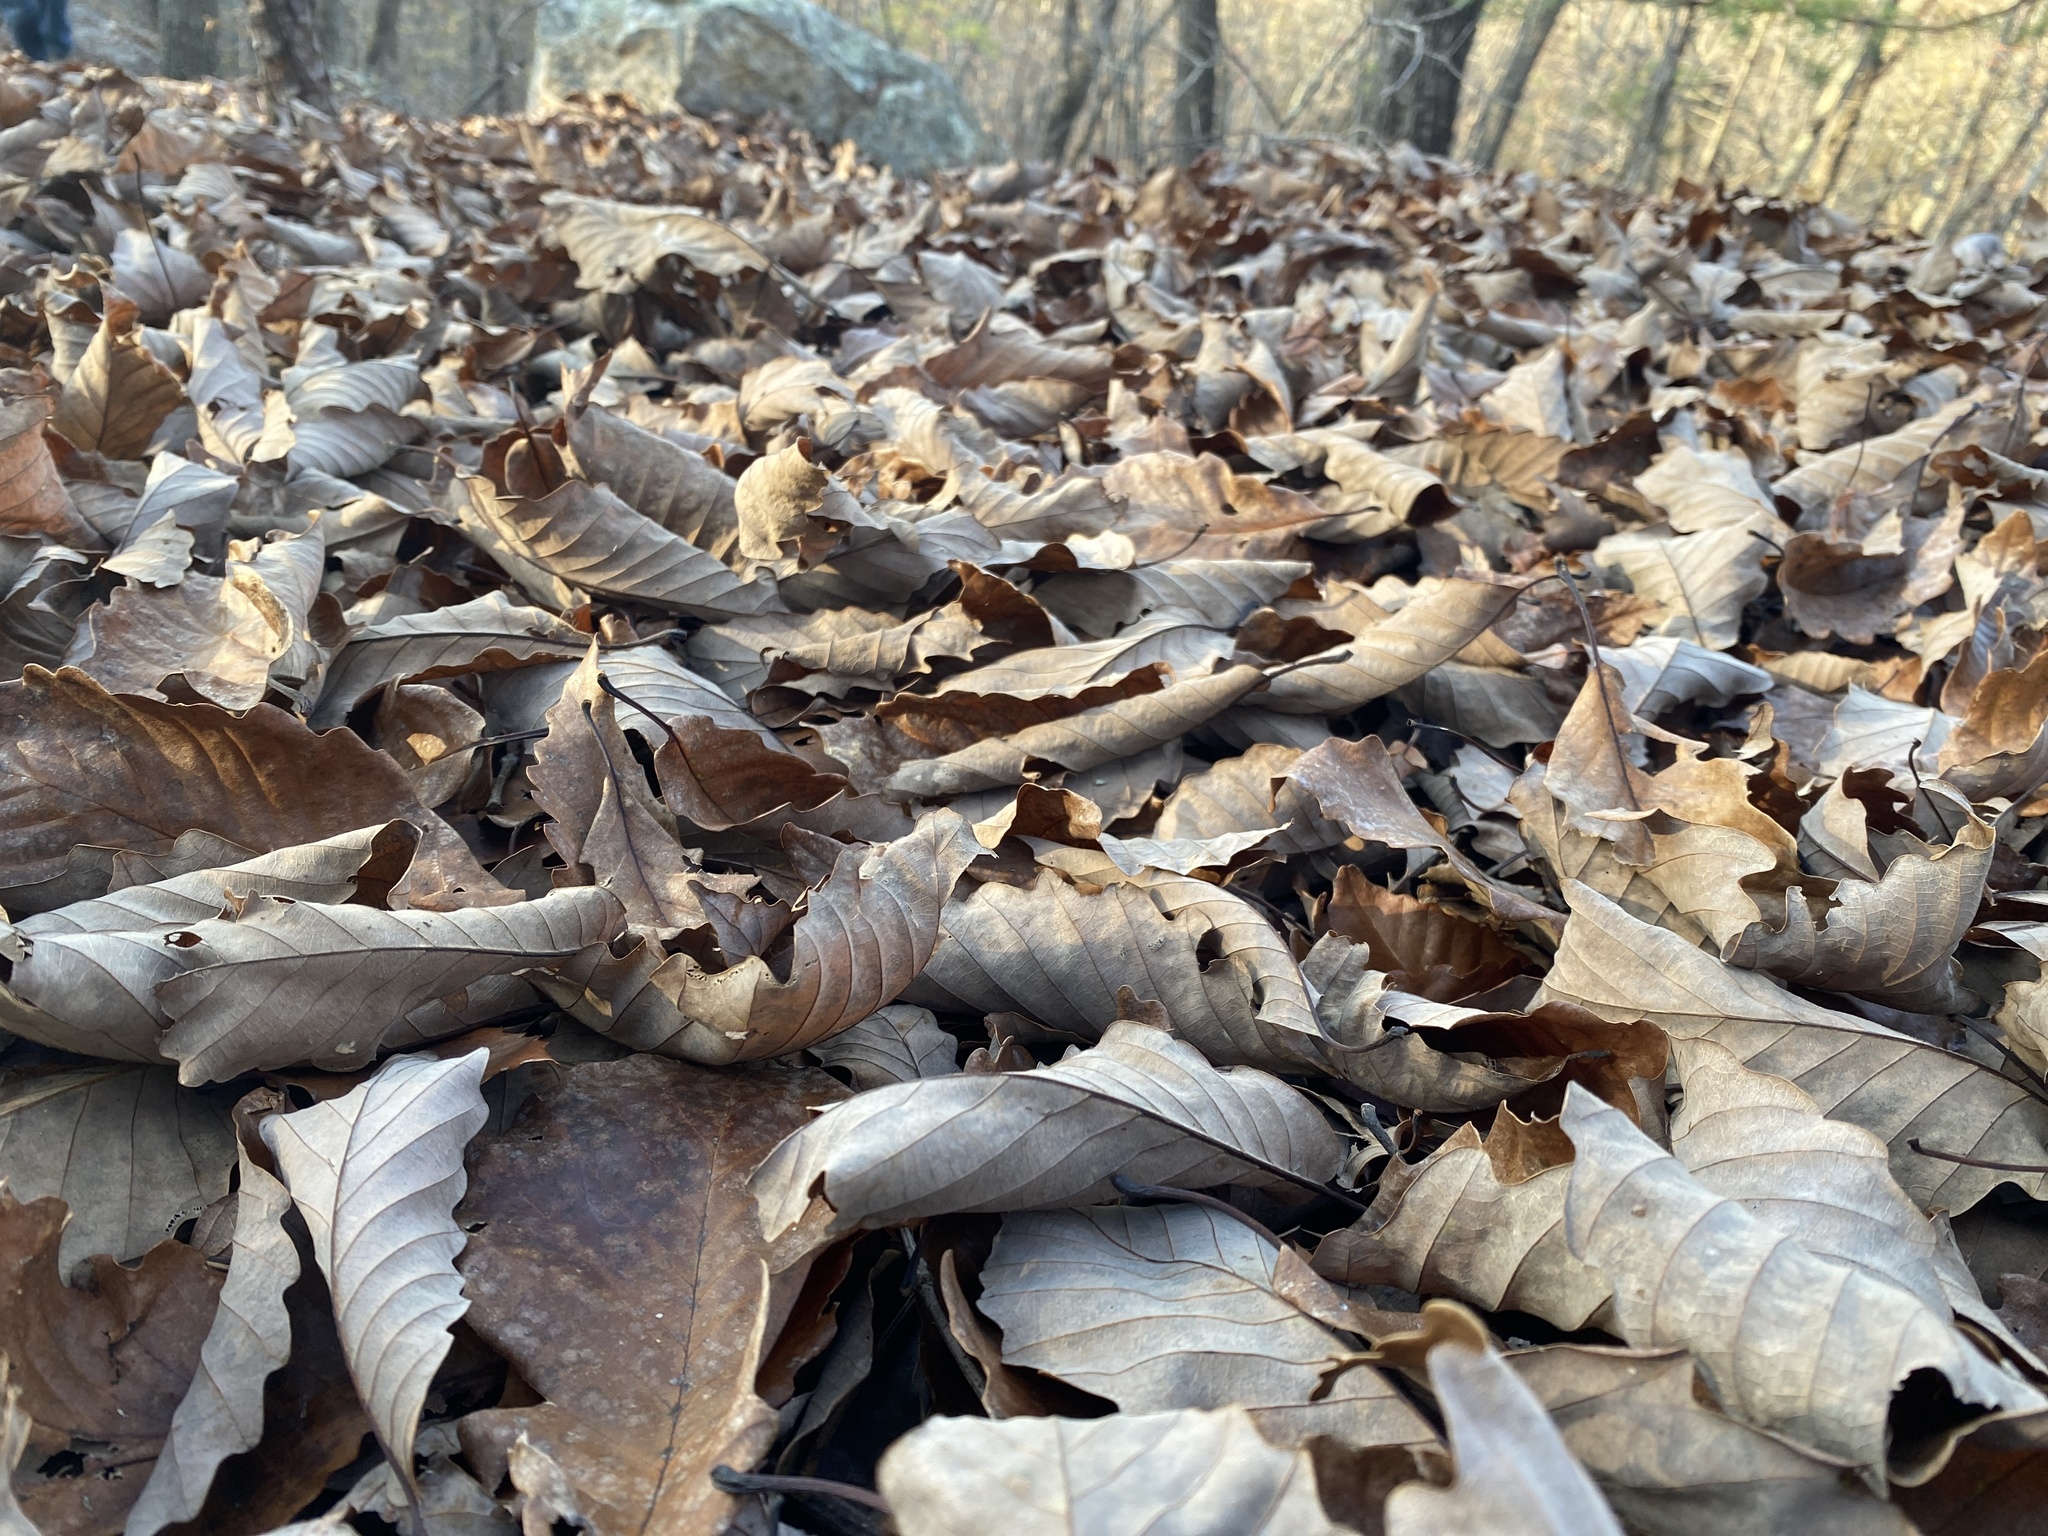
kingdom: Plantae
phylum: Tracheophyta
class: Magnoliopsida
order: Fagales
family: Fagaceae
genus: Quercus
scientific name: Quercus montana
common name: Chestnut oak
